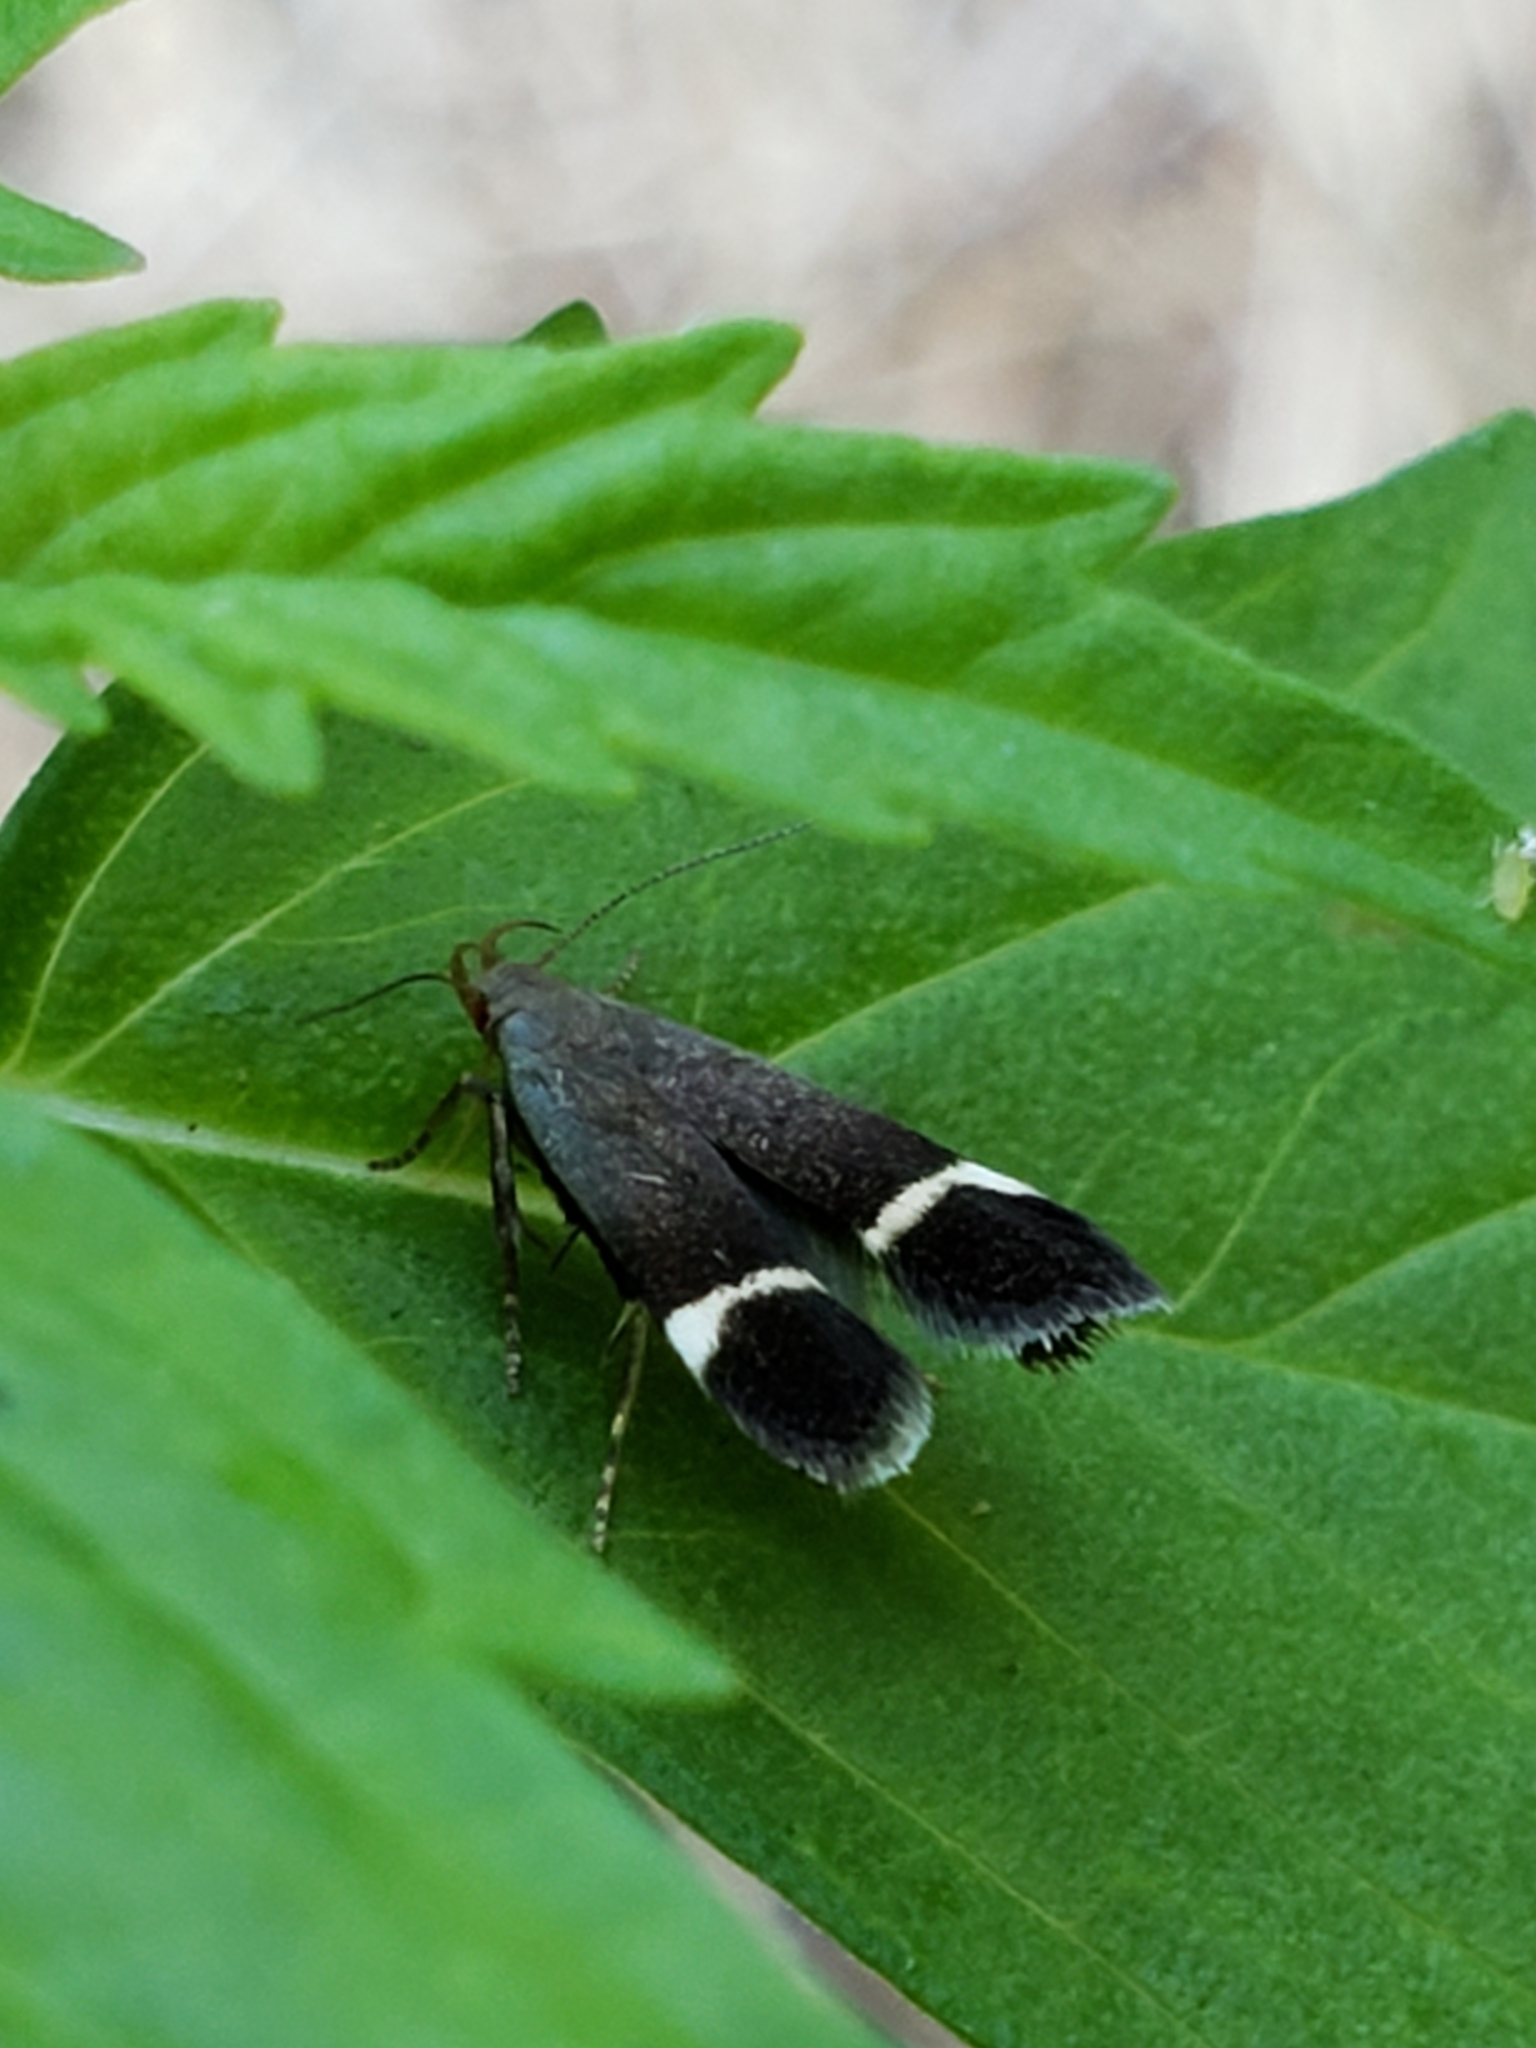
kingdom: Animalia
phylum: Arthropoda
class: Insecta
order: Lepidoptera
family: Gelechiidae
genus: Anacampsis
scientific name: Anacampsis agrimoniella
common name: Agrimony anacampsis moth
